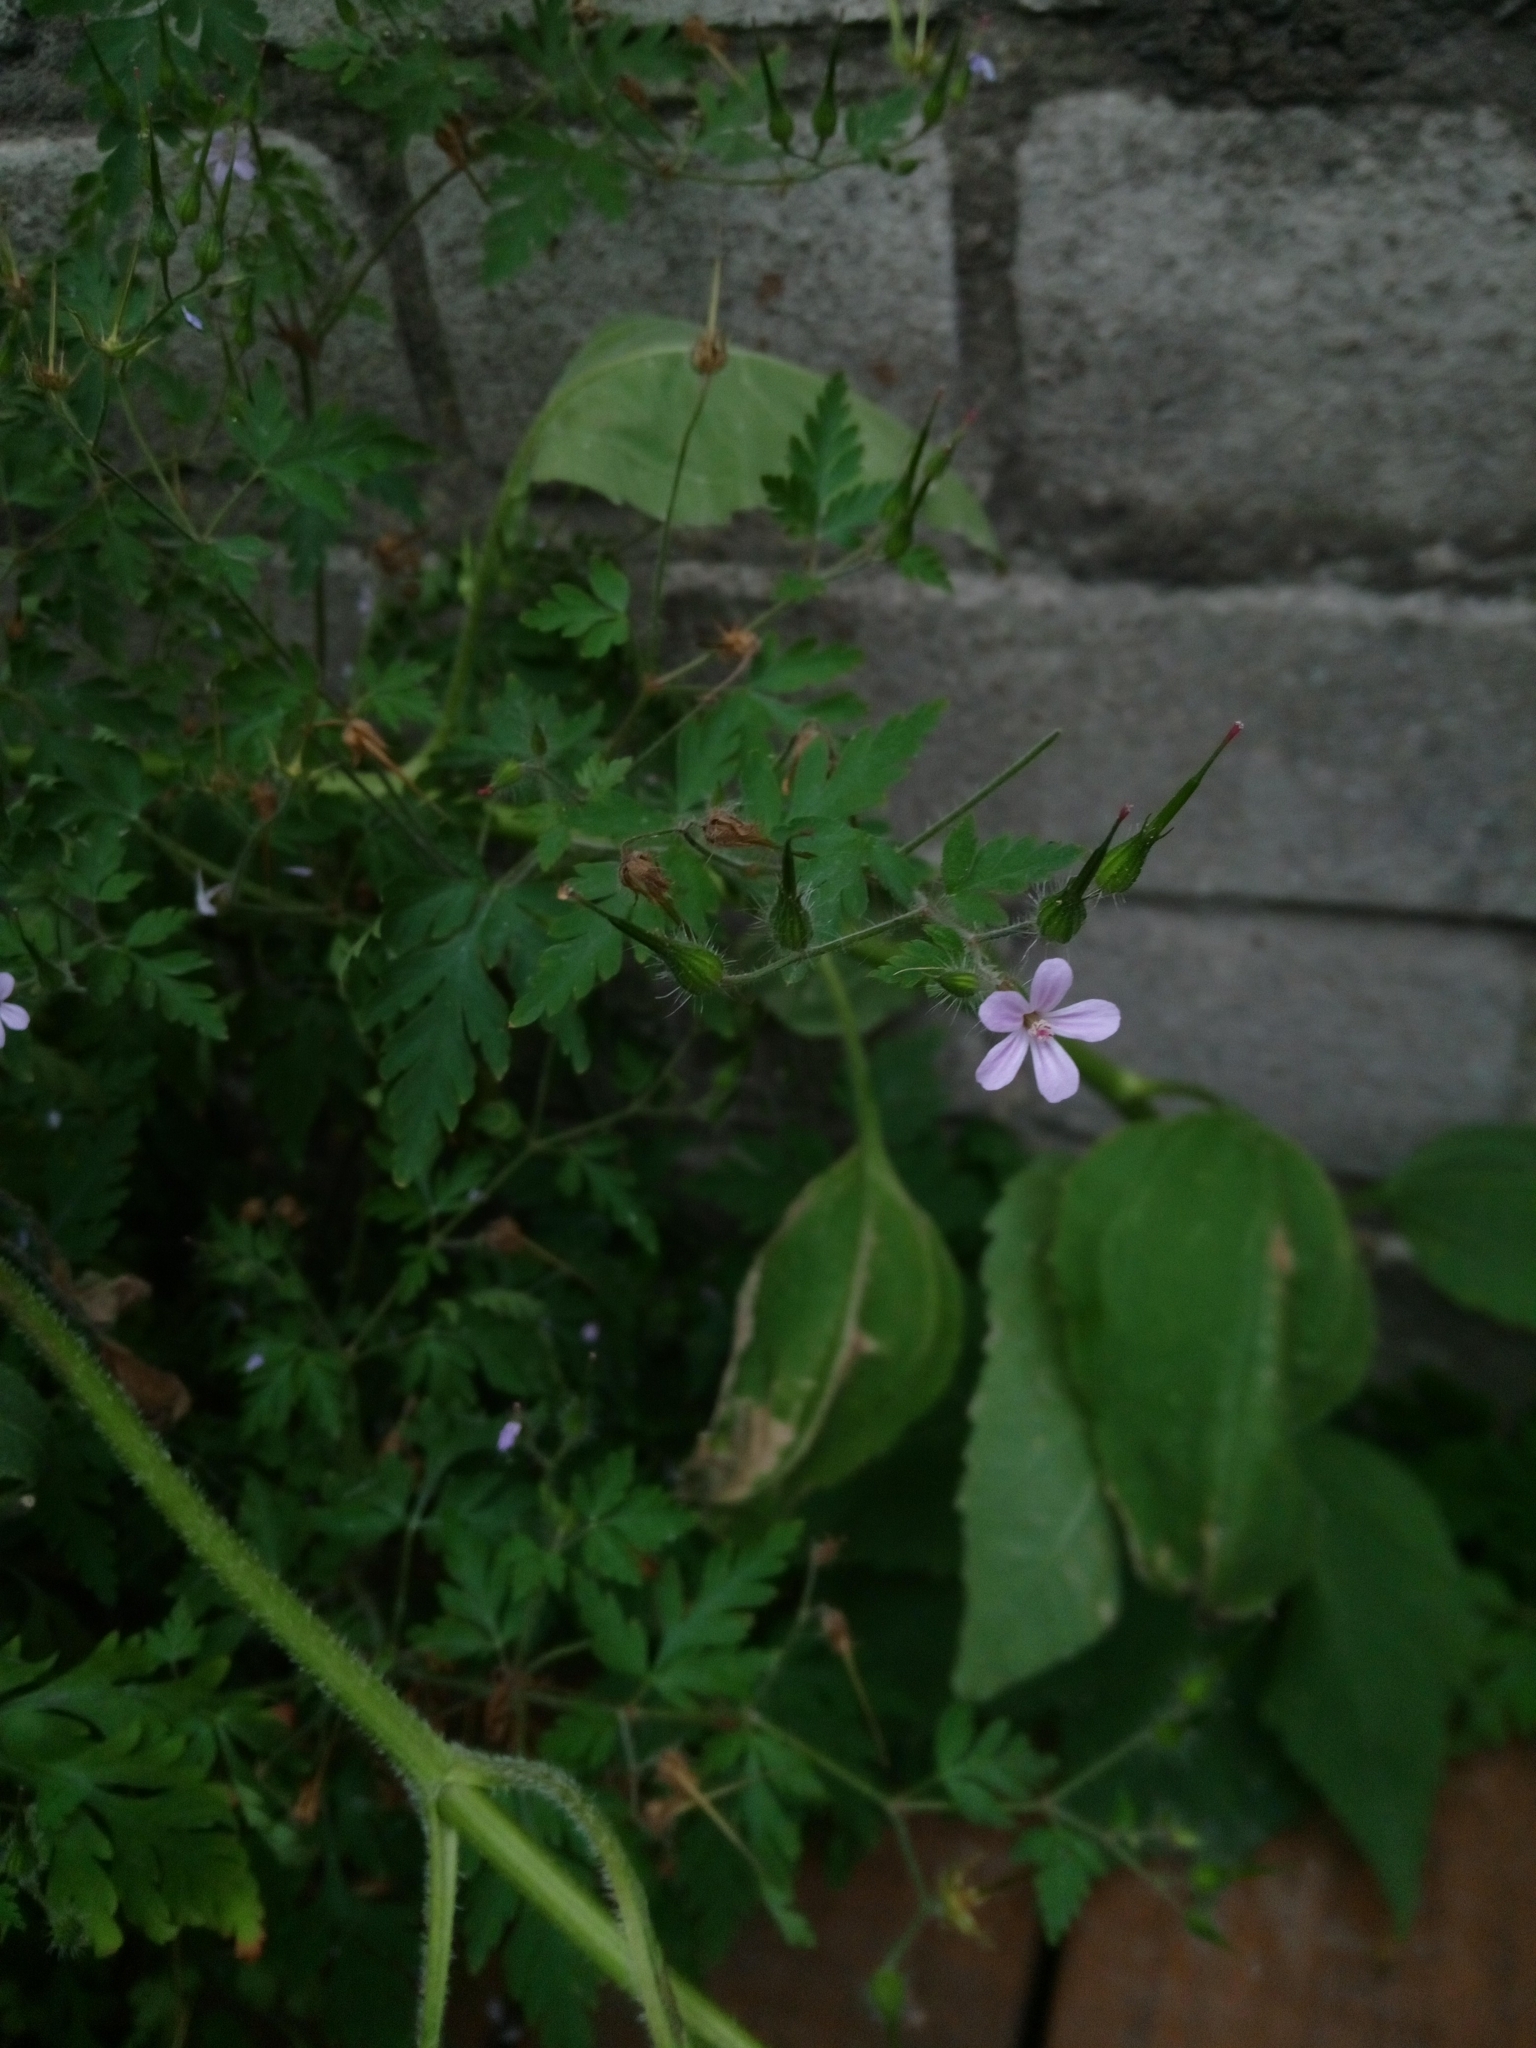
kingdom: Plantae
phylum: Tracheophyta
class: Magnoliopsida
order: Geraniales
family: Geraniaceae
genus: Geranium
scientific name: Geranium robertianum
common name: Herb-robert
